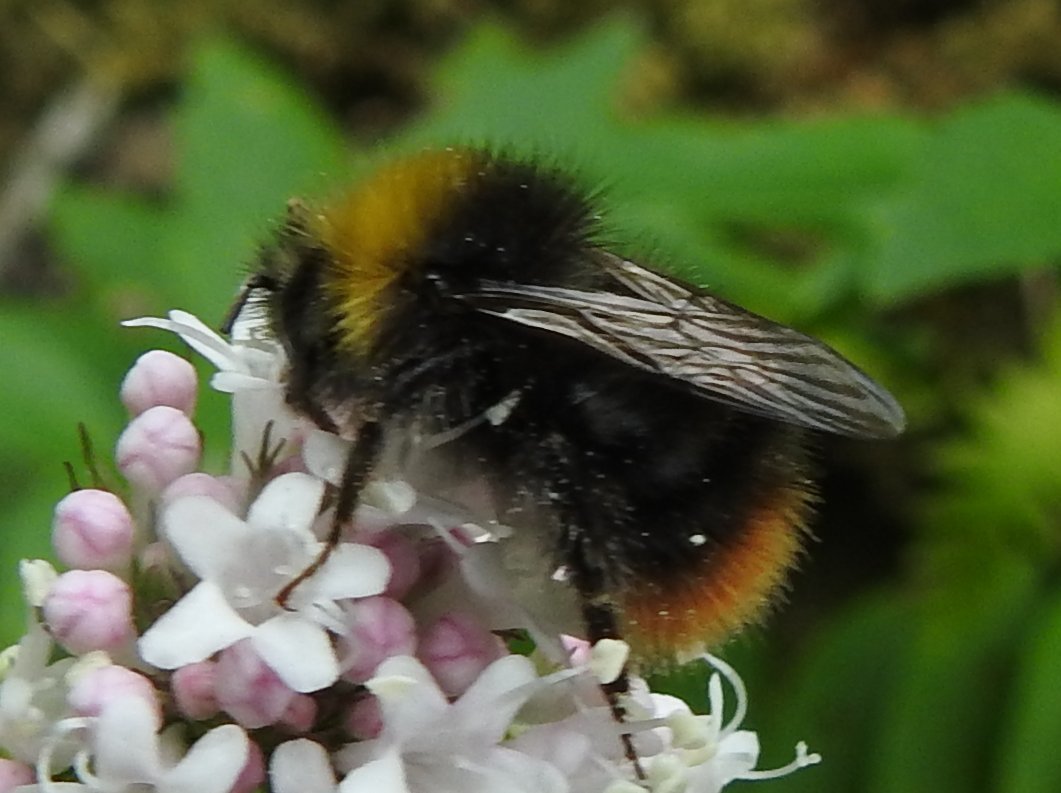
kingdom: Animalia
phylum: Arthropoda
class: Insecta
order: Hymenoptera
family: Apidae
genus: Bombus
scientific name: Bombus pratorum
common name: Early humble-bee
